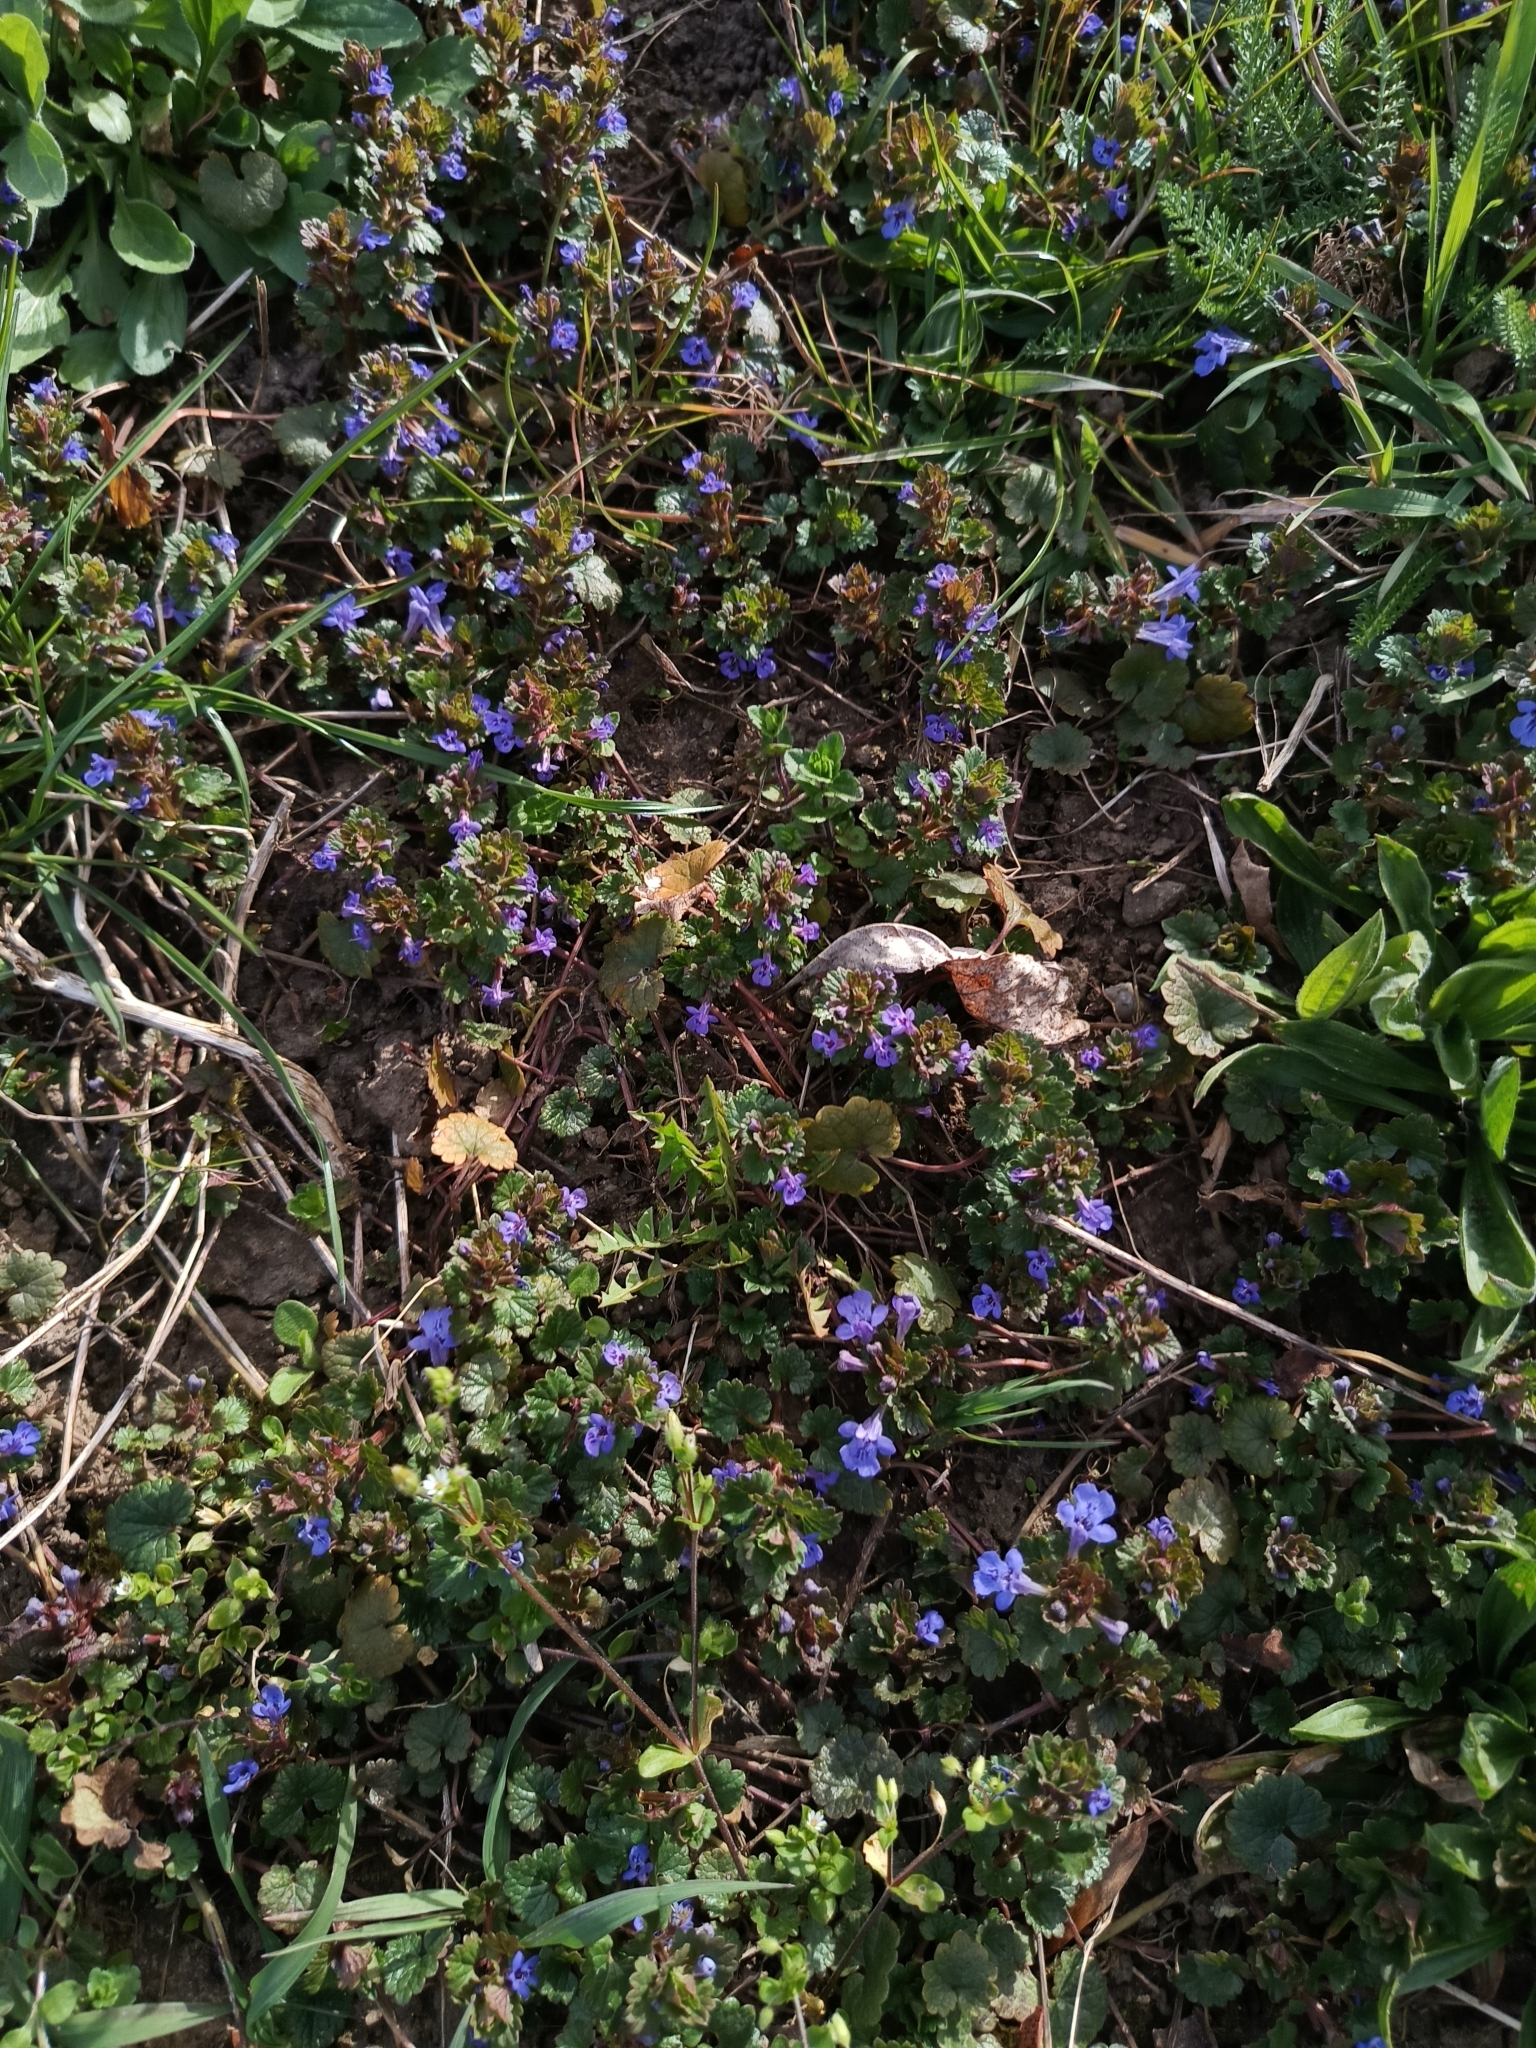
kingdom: Plantae
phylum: Tracheophyta
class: Magnoliopsida
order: Lamiales
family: Lamiaceae
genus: Glechoma
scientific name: Glechoma hederacea
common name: Ground ivy
